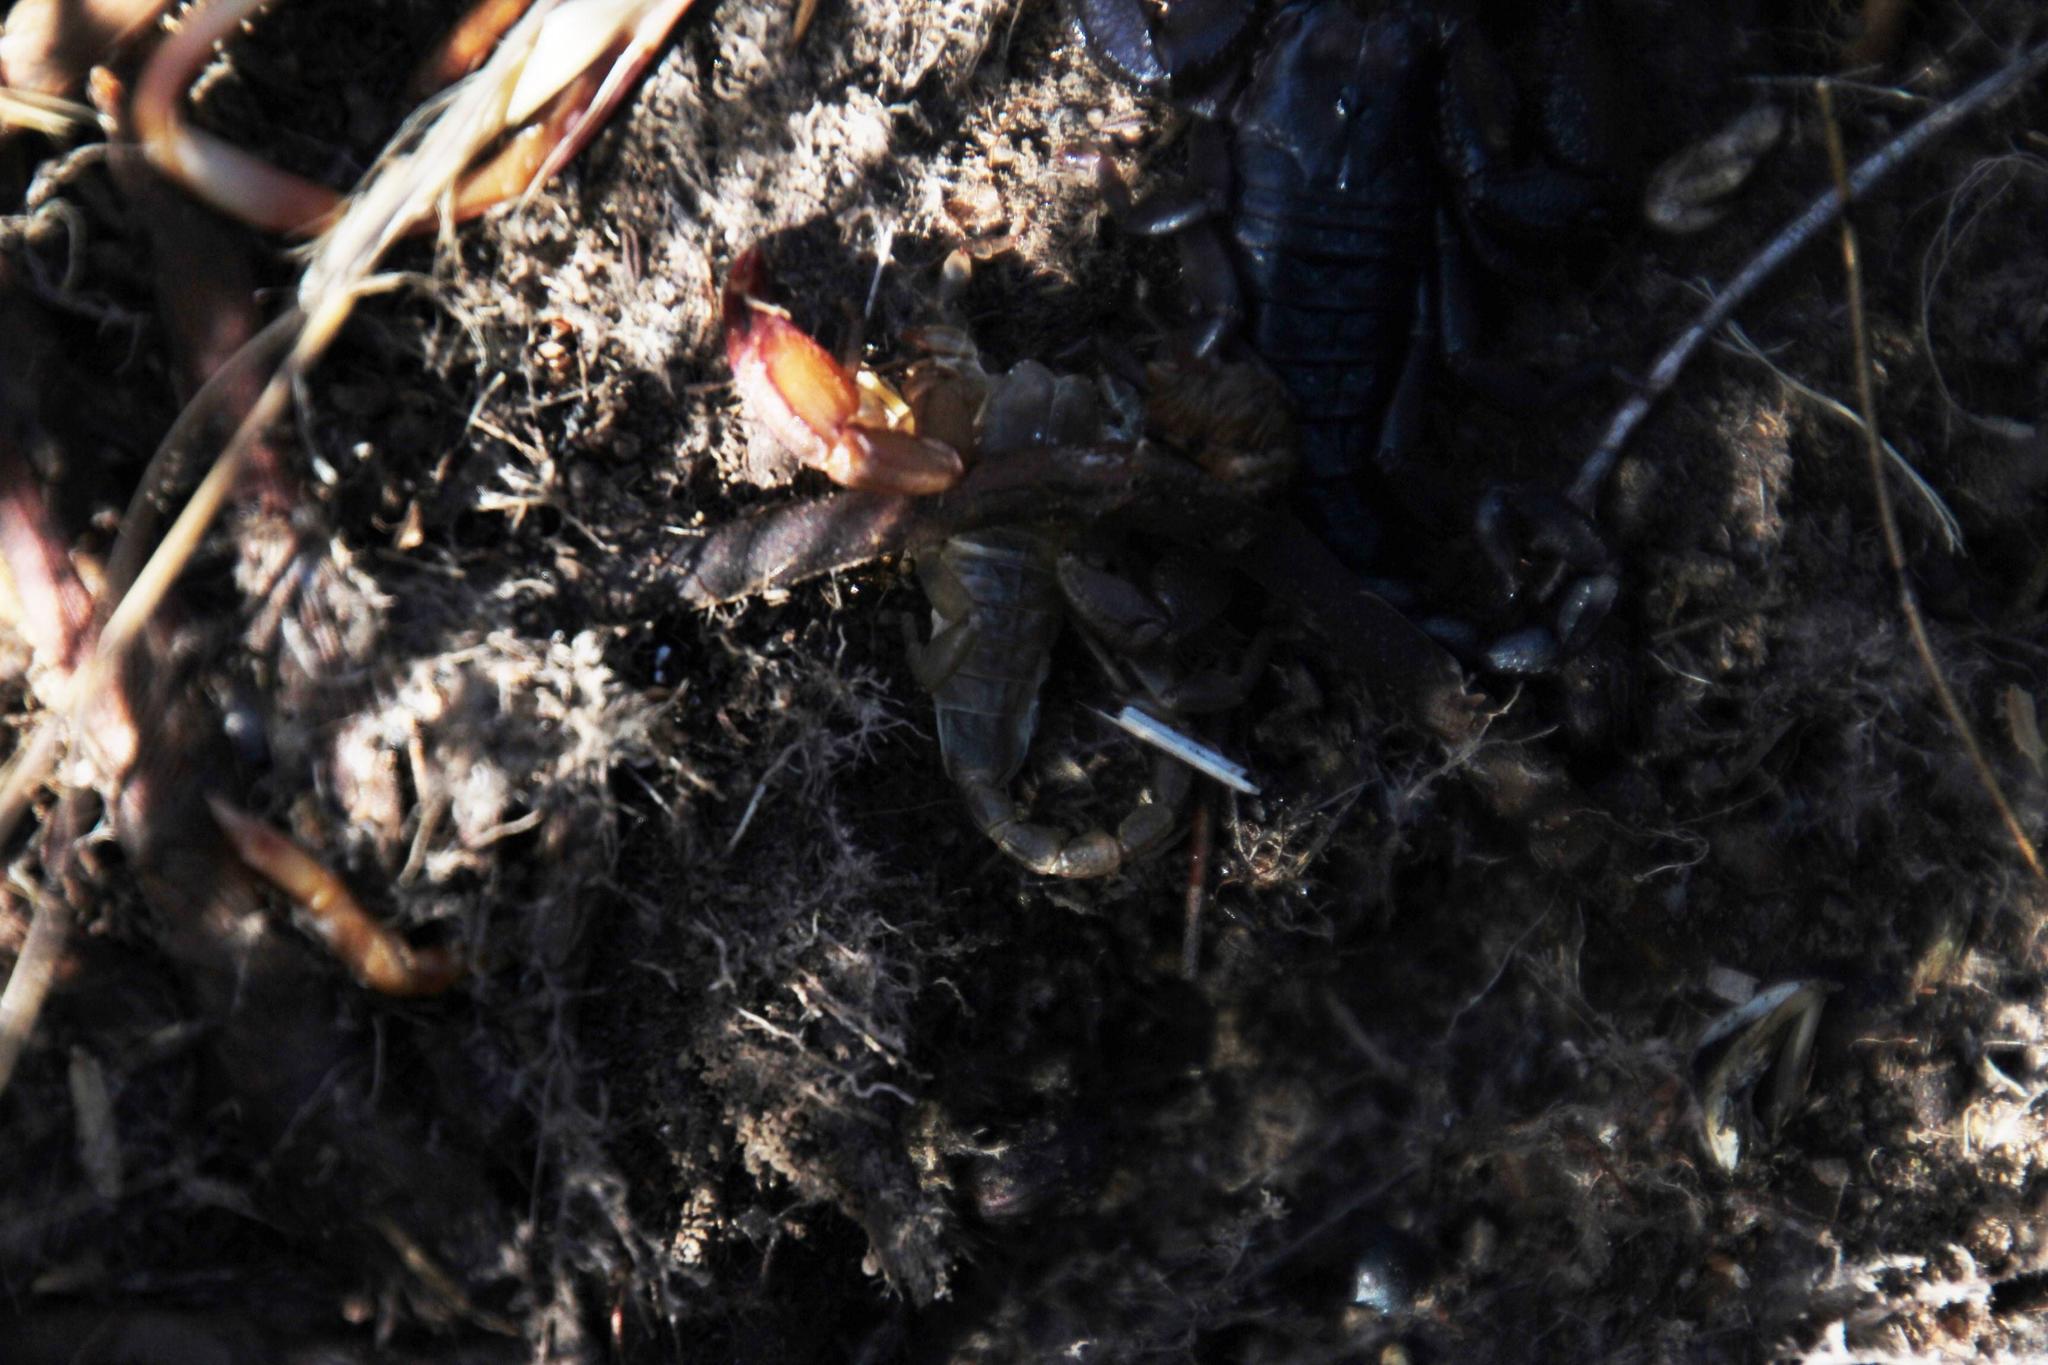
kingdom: Animalia
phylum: Arthropoda
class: Arachnida
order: Scorpiones
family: Hormuridae
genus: Opisthacanthus
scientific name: Opisthacanthus capensis
